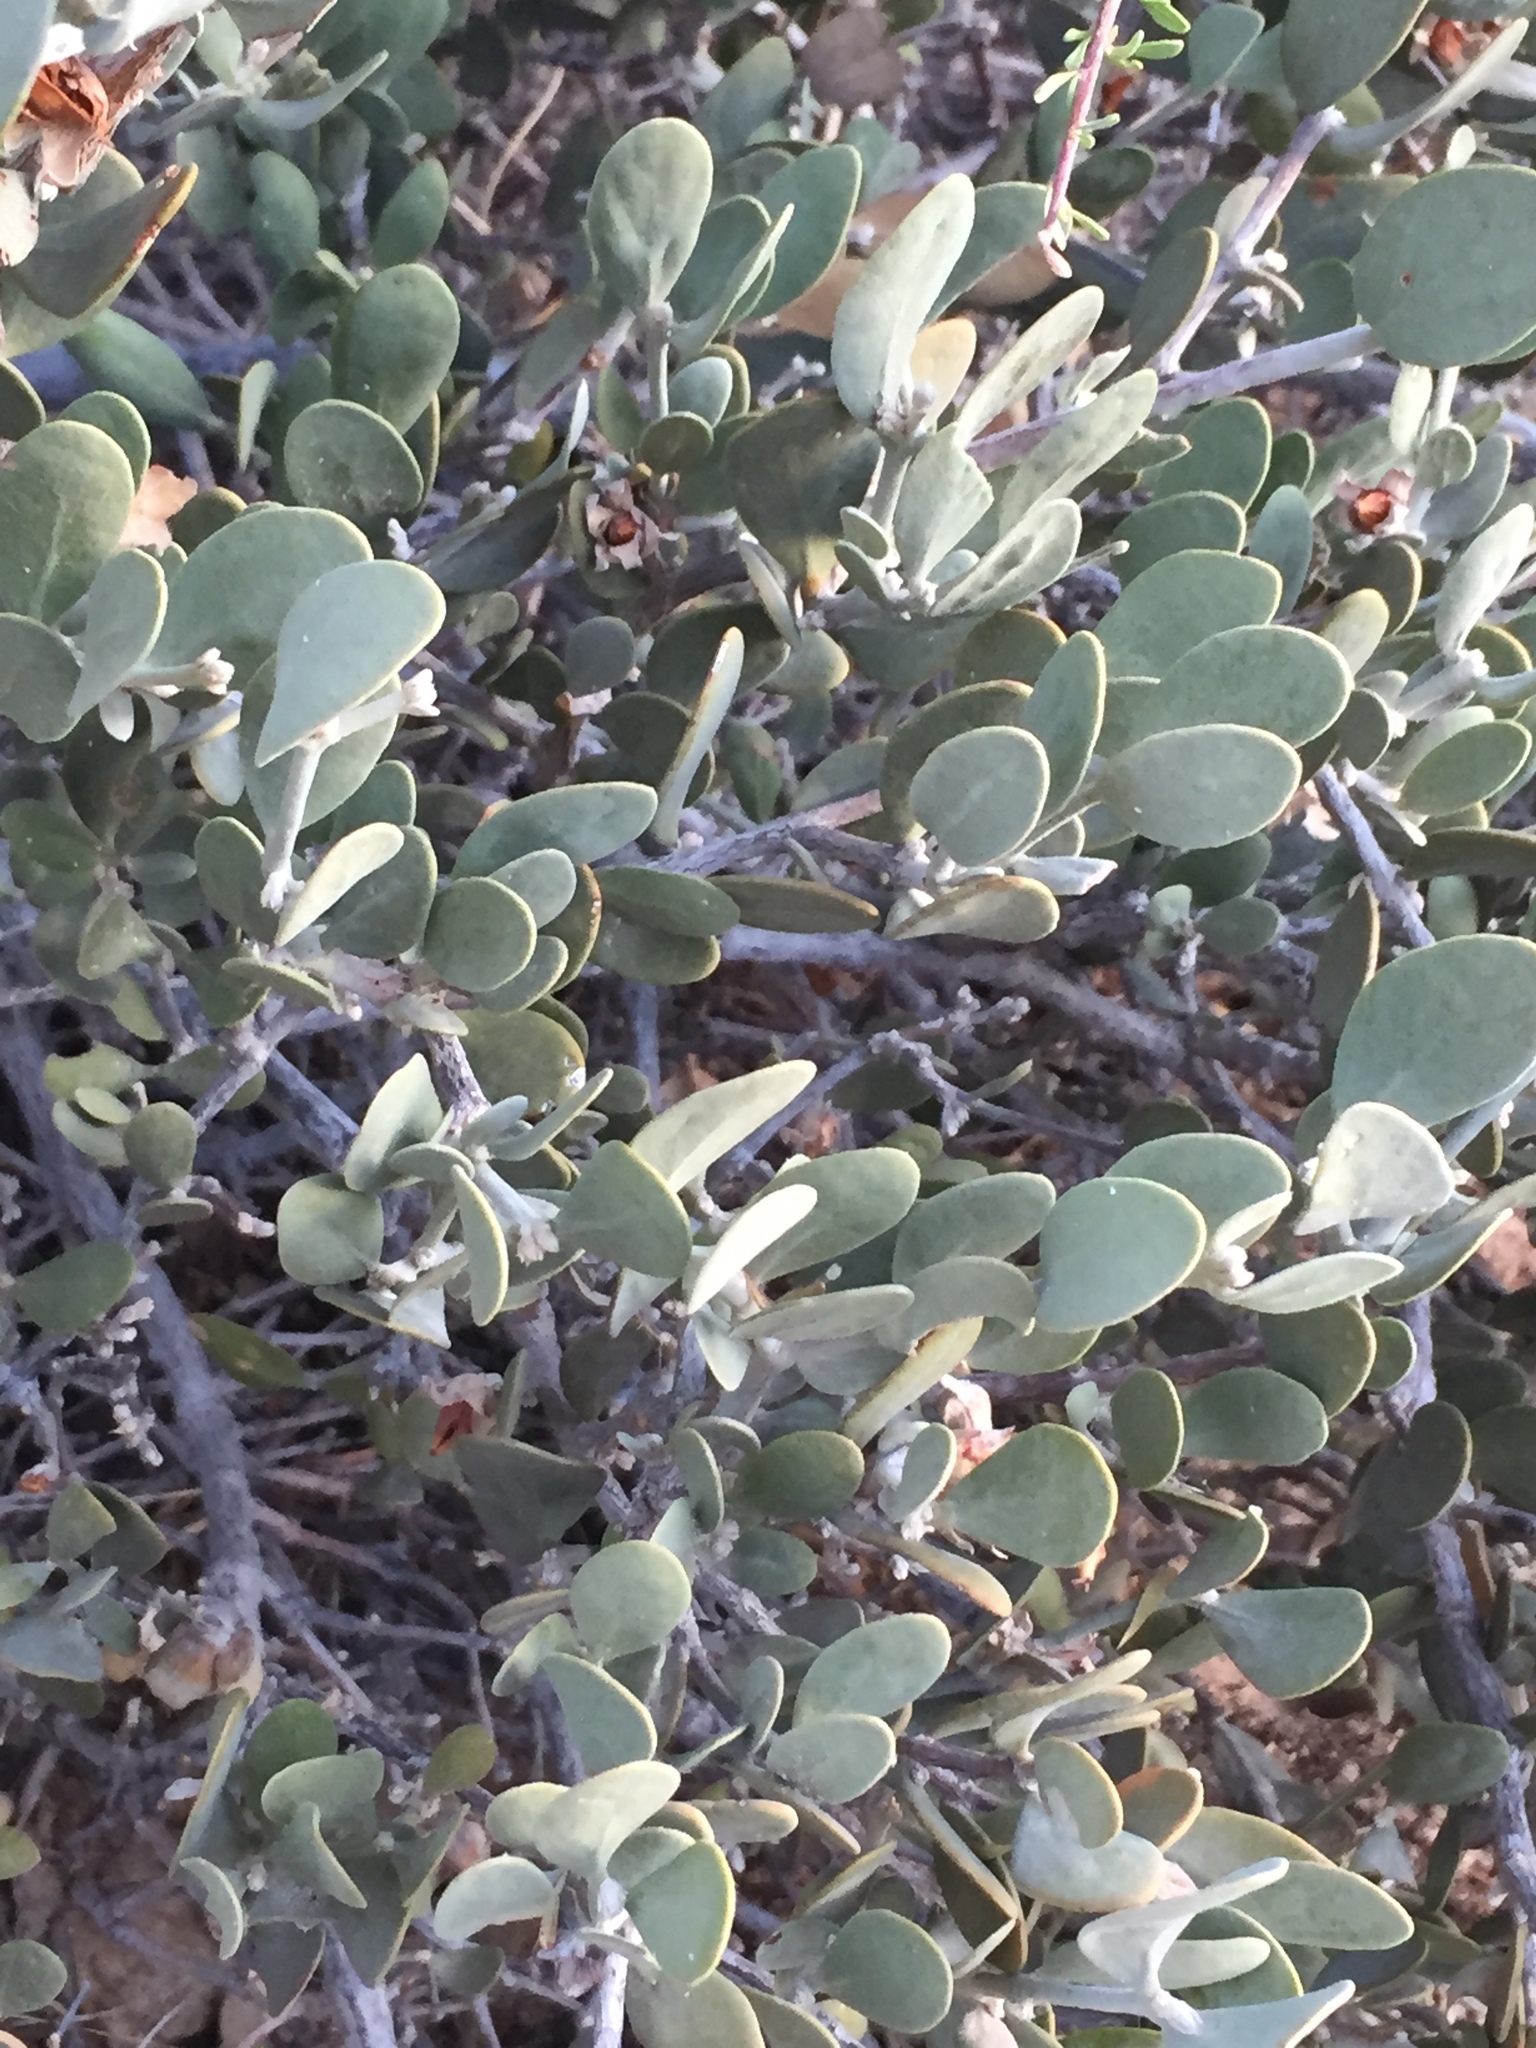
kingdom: Plantae
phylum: Tracheophyta
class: Magnoliopsida
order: Caryophyllales
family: Simmondsiaceae
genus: Simmondsia
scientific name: Simmondsia chinensis
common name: Jojoba
